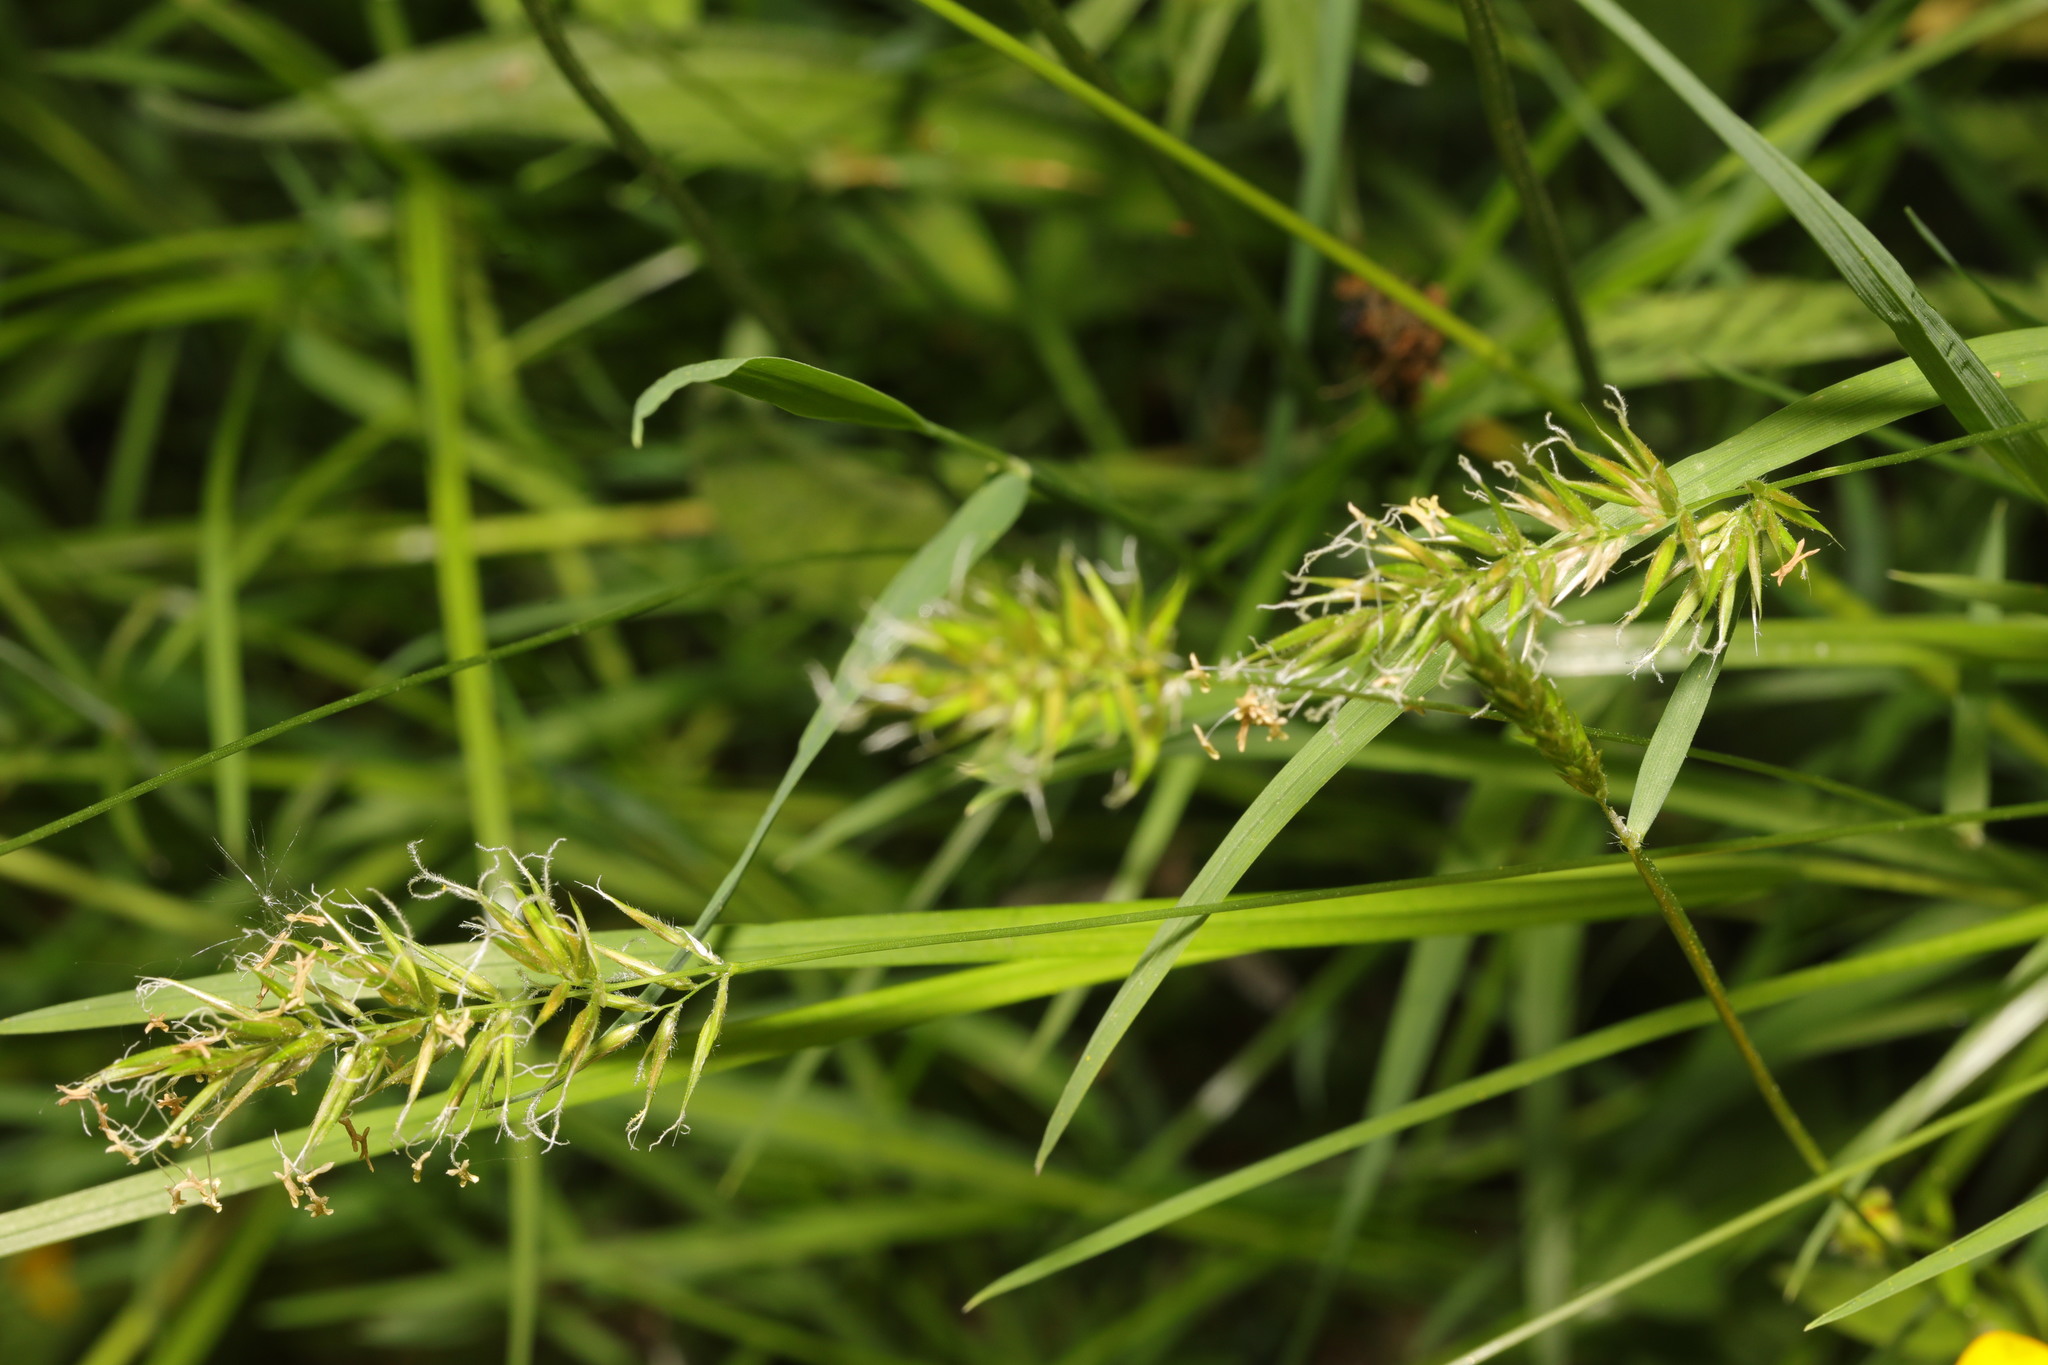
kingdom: Plantae
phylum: Tracheophyta
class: Liliopsida
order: Poales
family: Poaceae
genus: Anthoxanthum
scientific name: Anthoxanthum odoratum
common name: Sweet vernalgrass
